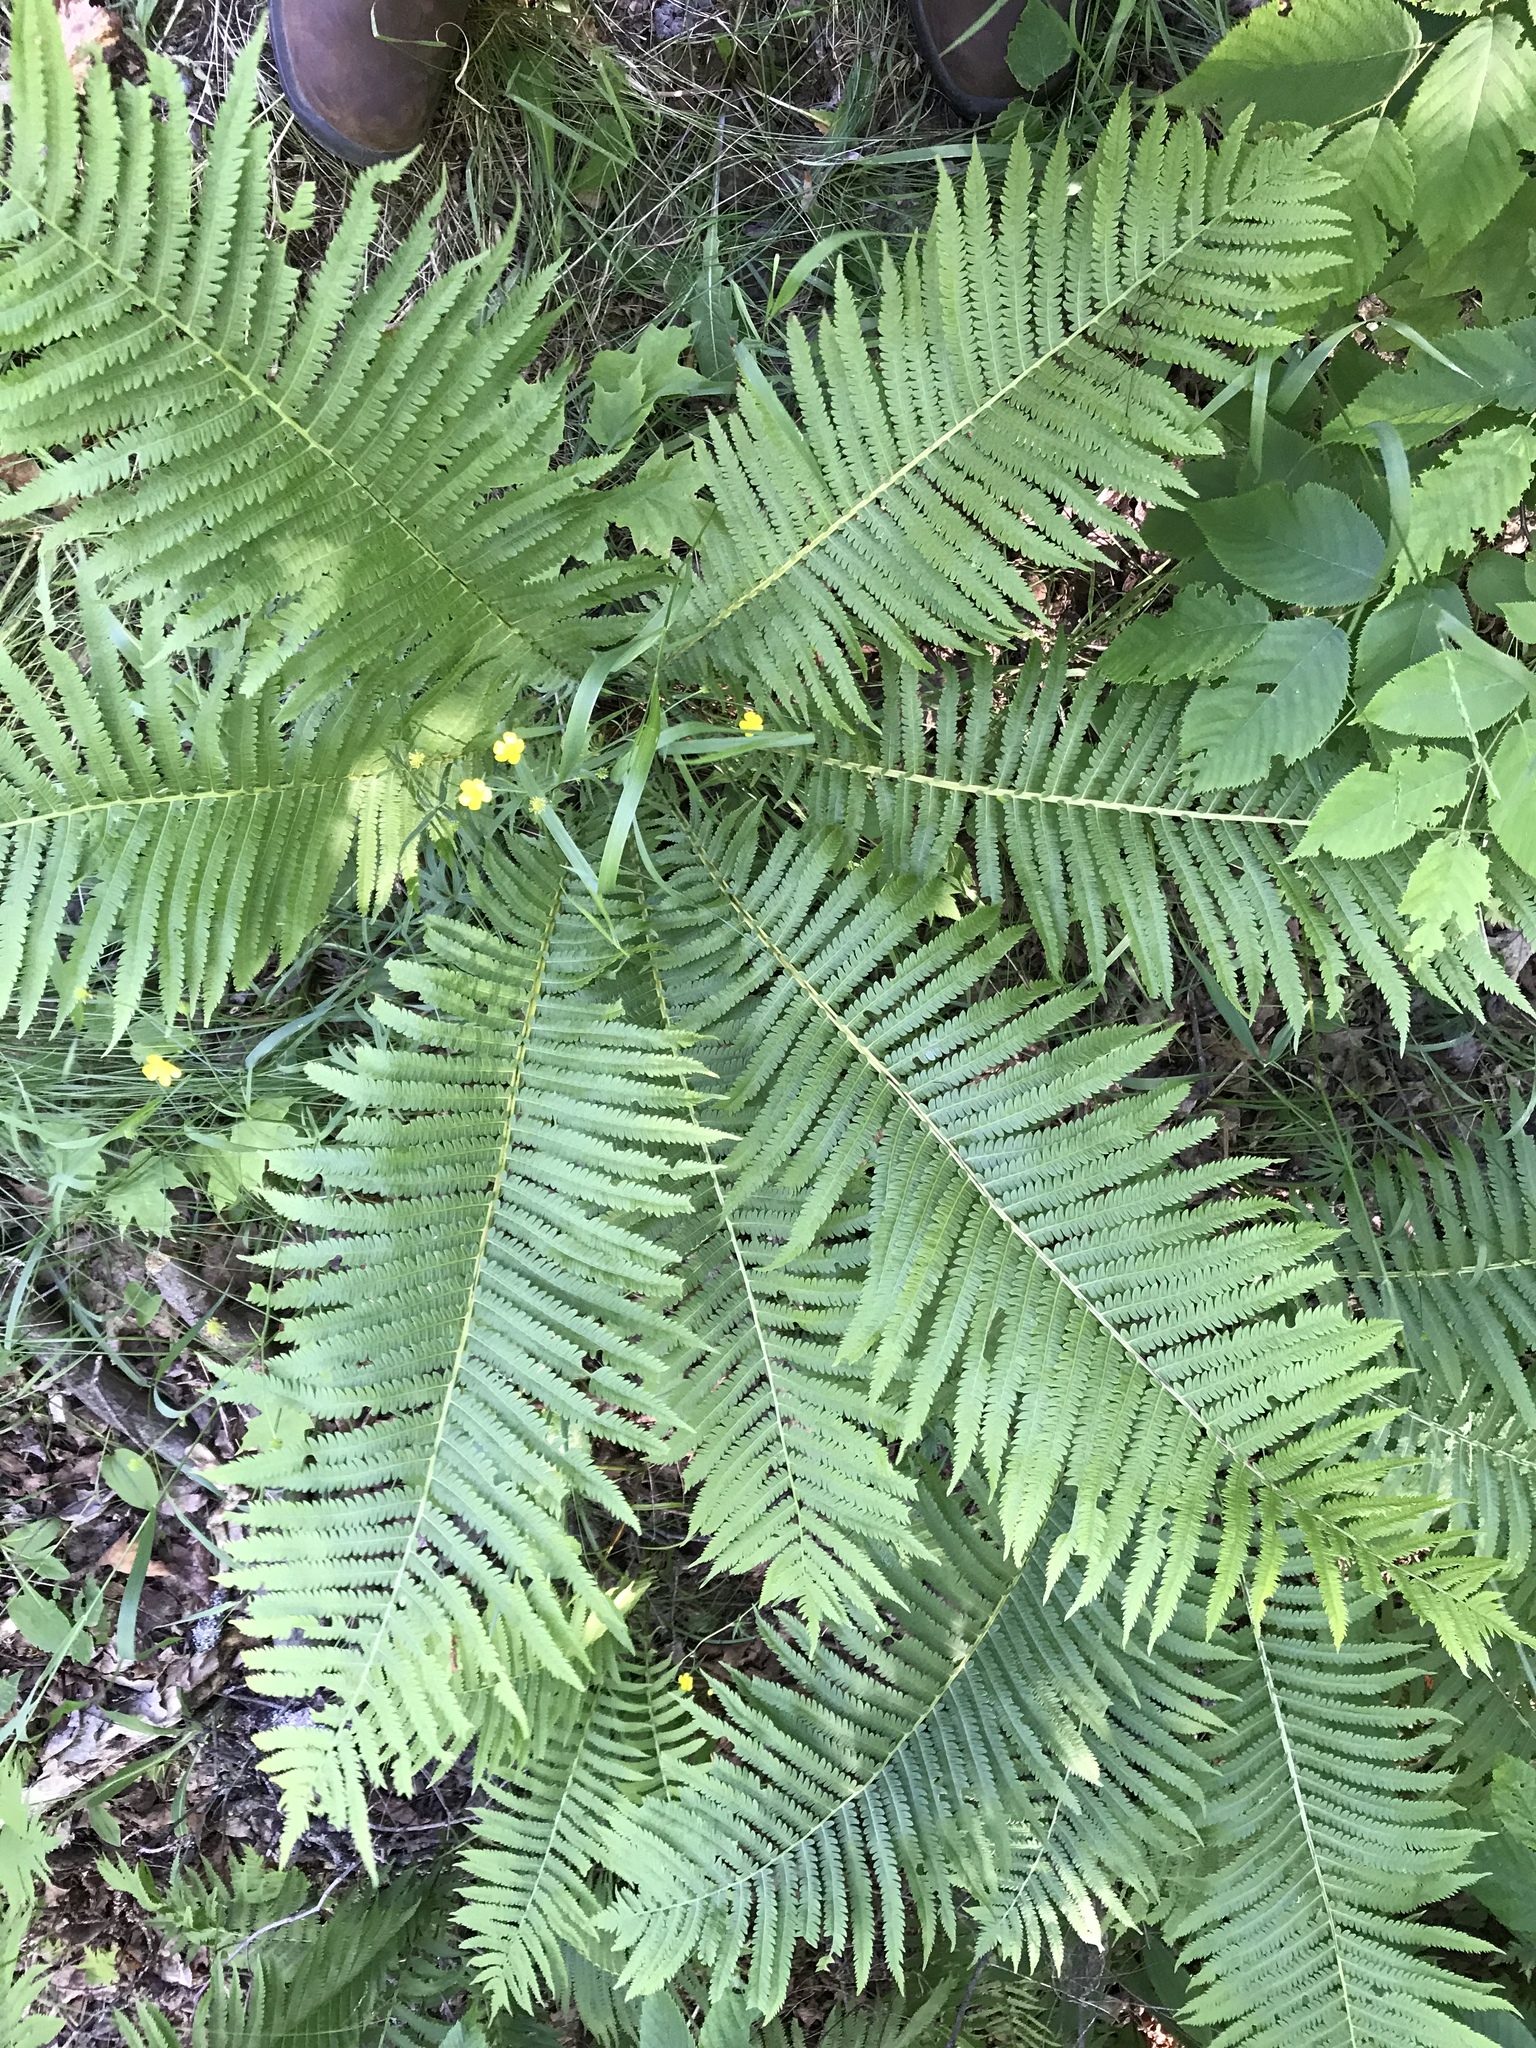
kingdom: Plantae
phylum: Tracheophyta
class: Polypodiopsida
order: Polypodiales
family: Onocleaceae
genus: Matteuccia
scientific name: Matteuccia struthiopteris
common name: Ostrich fern
